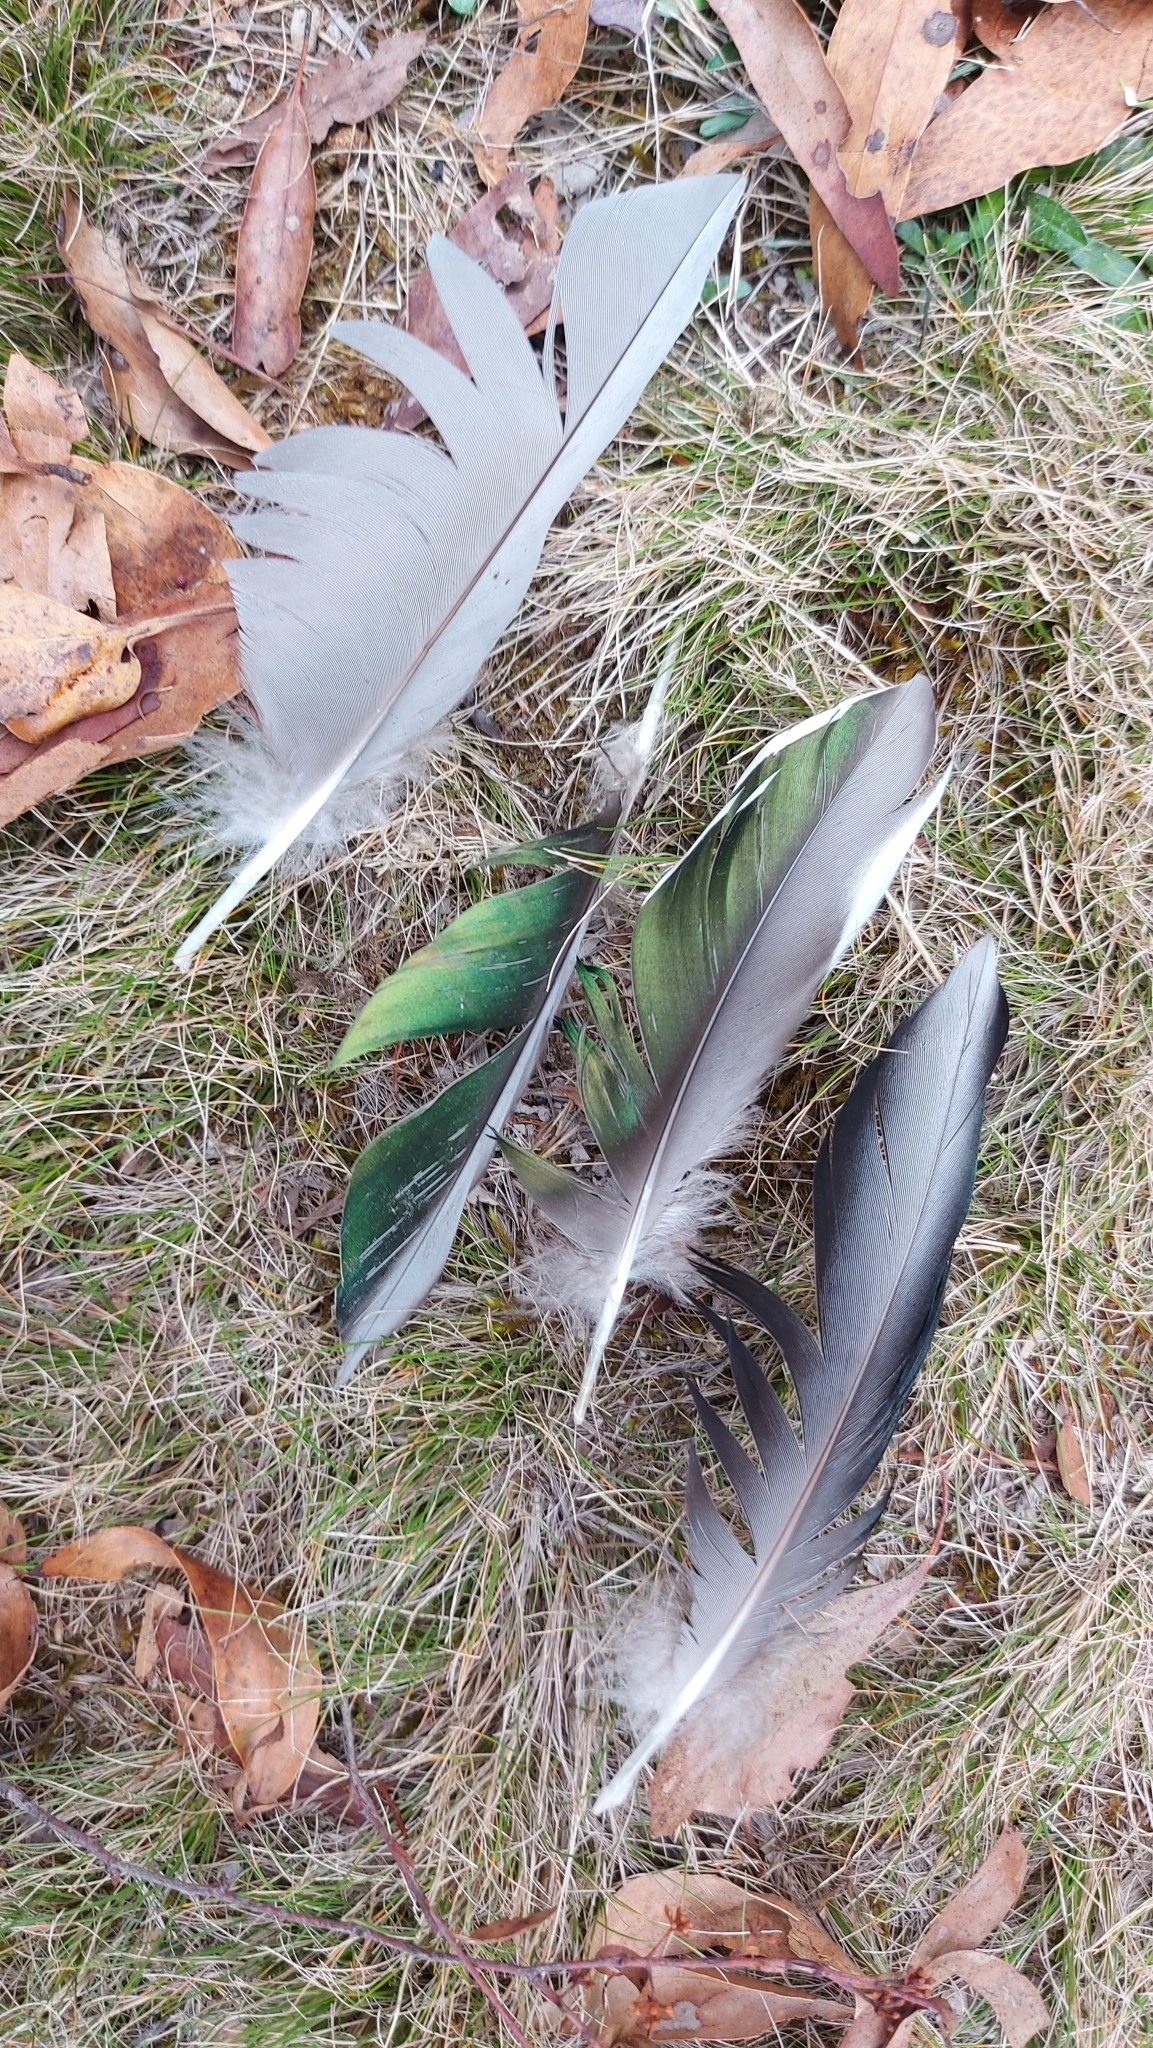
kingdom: Animalia
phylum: Chordata
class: Aves
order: Anseriformes
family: Anatidae
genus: Chenonetta
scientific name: Chenonetta jubata
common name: Maned duck
